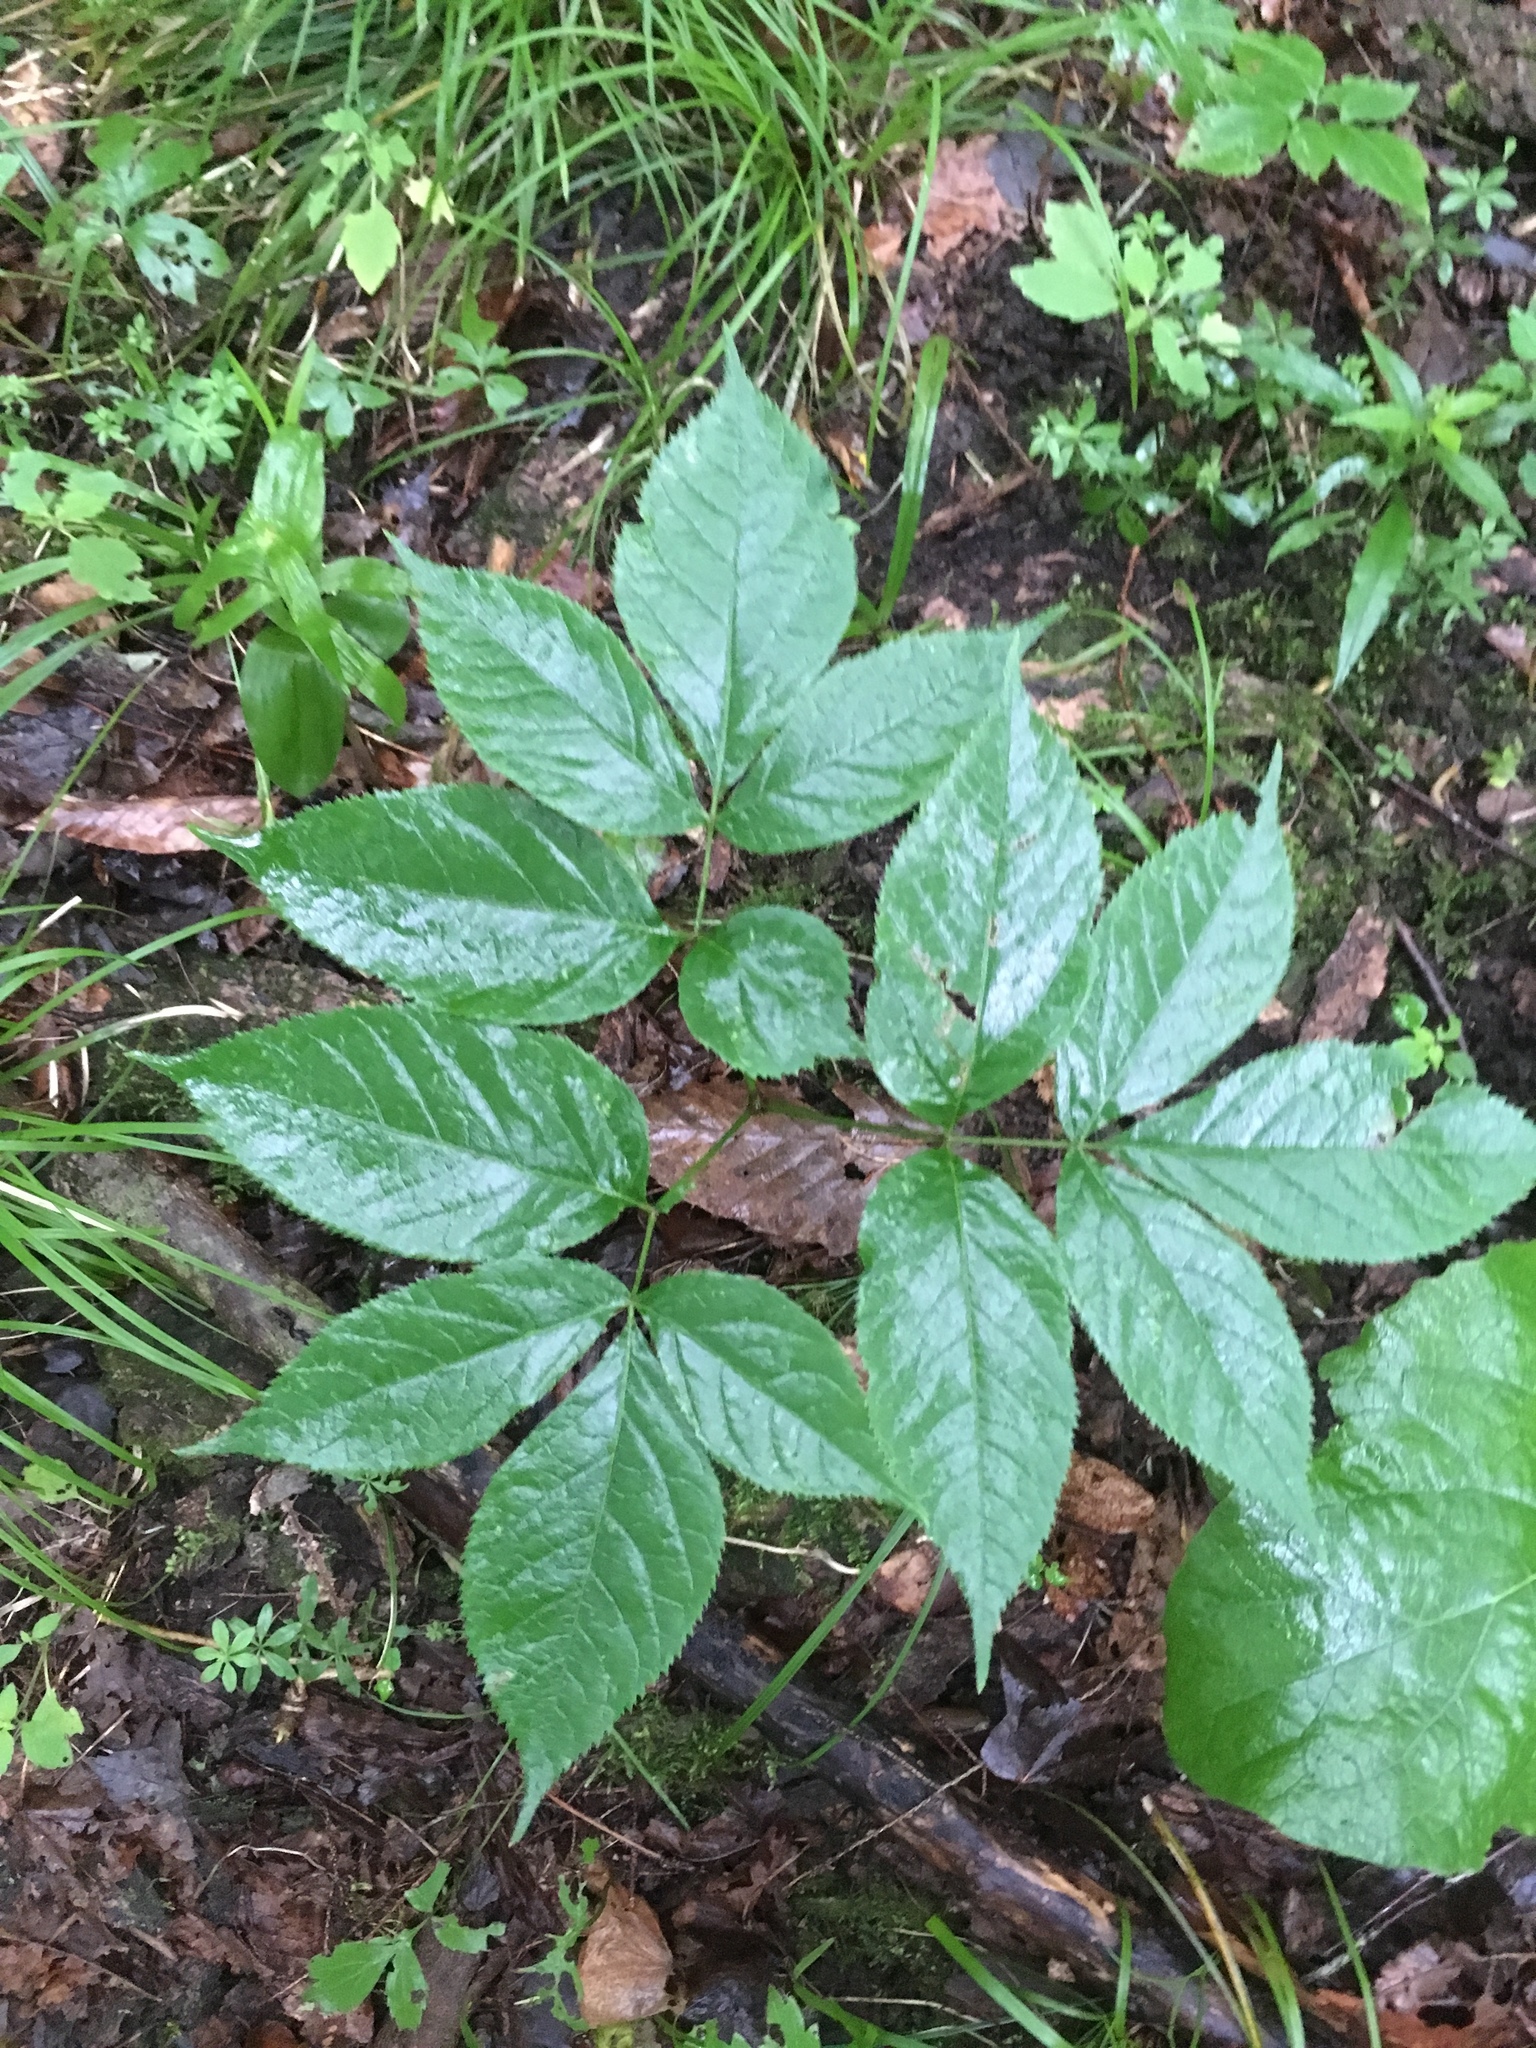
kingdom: Plantae
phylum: Tracheophyta
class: Magnoliopsida
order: Apiales
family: Araliaceae
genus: Aralia
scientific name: Aralia nudicaulis
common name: Wild sarsaparilla
